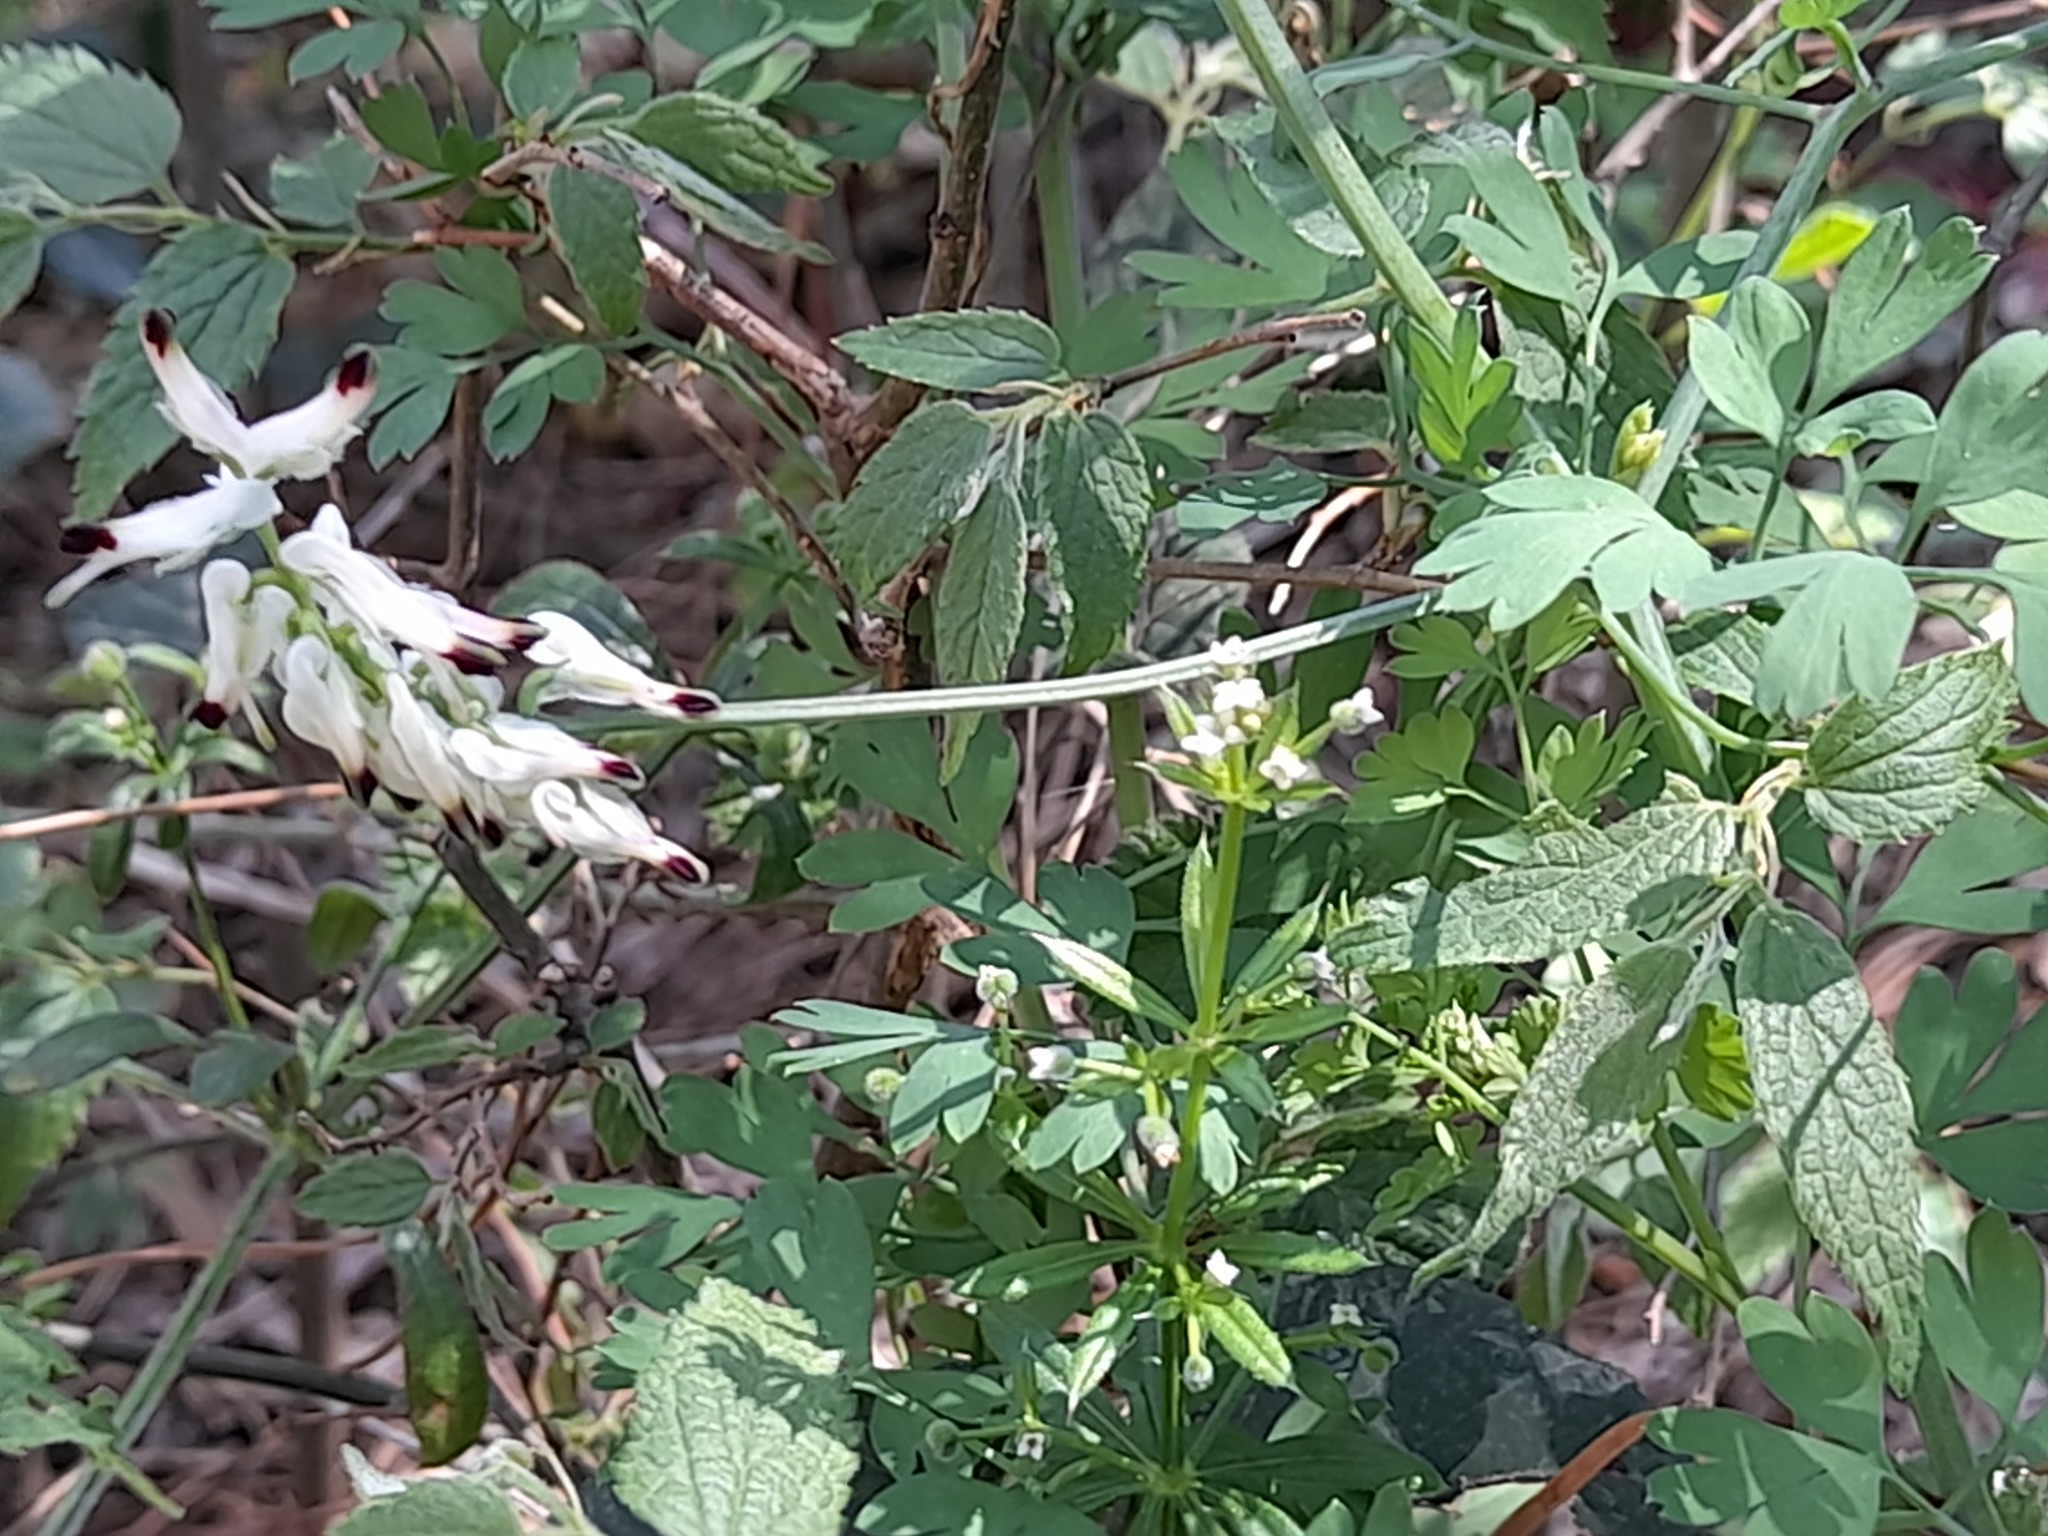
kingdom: Plantae
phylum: Tracheophyta
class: Magnoliopsida
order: Ranunculales
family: Papaveraceae
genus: Fumaria
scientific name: Fumaria capreolata
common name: White ramping-fumitory
